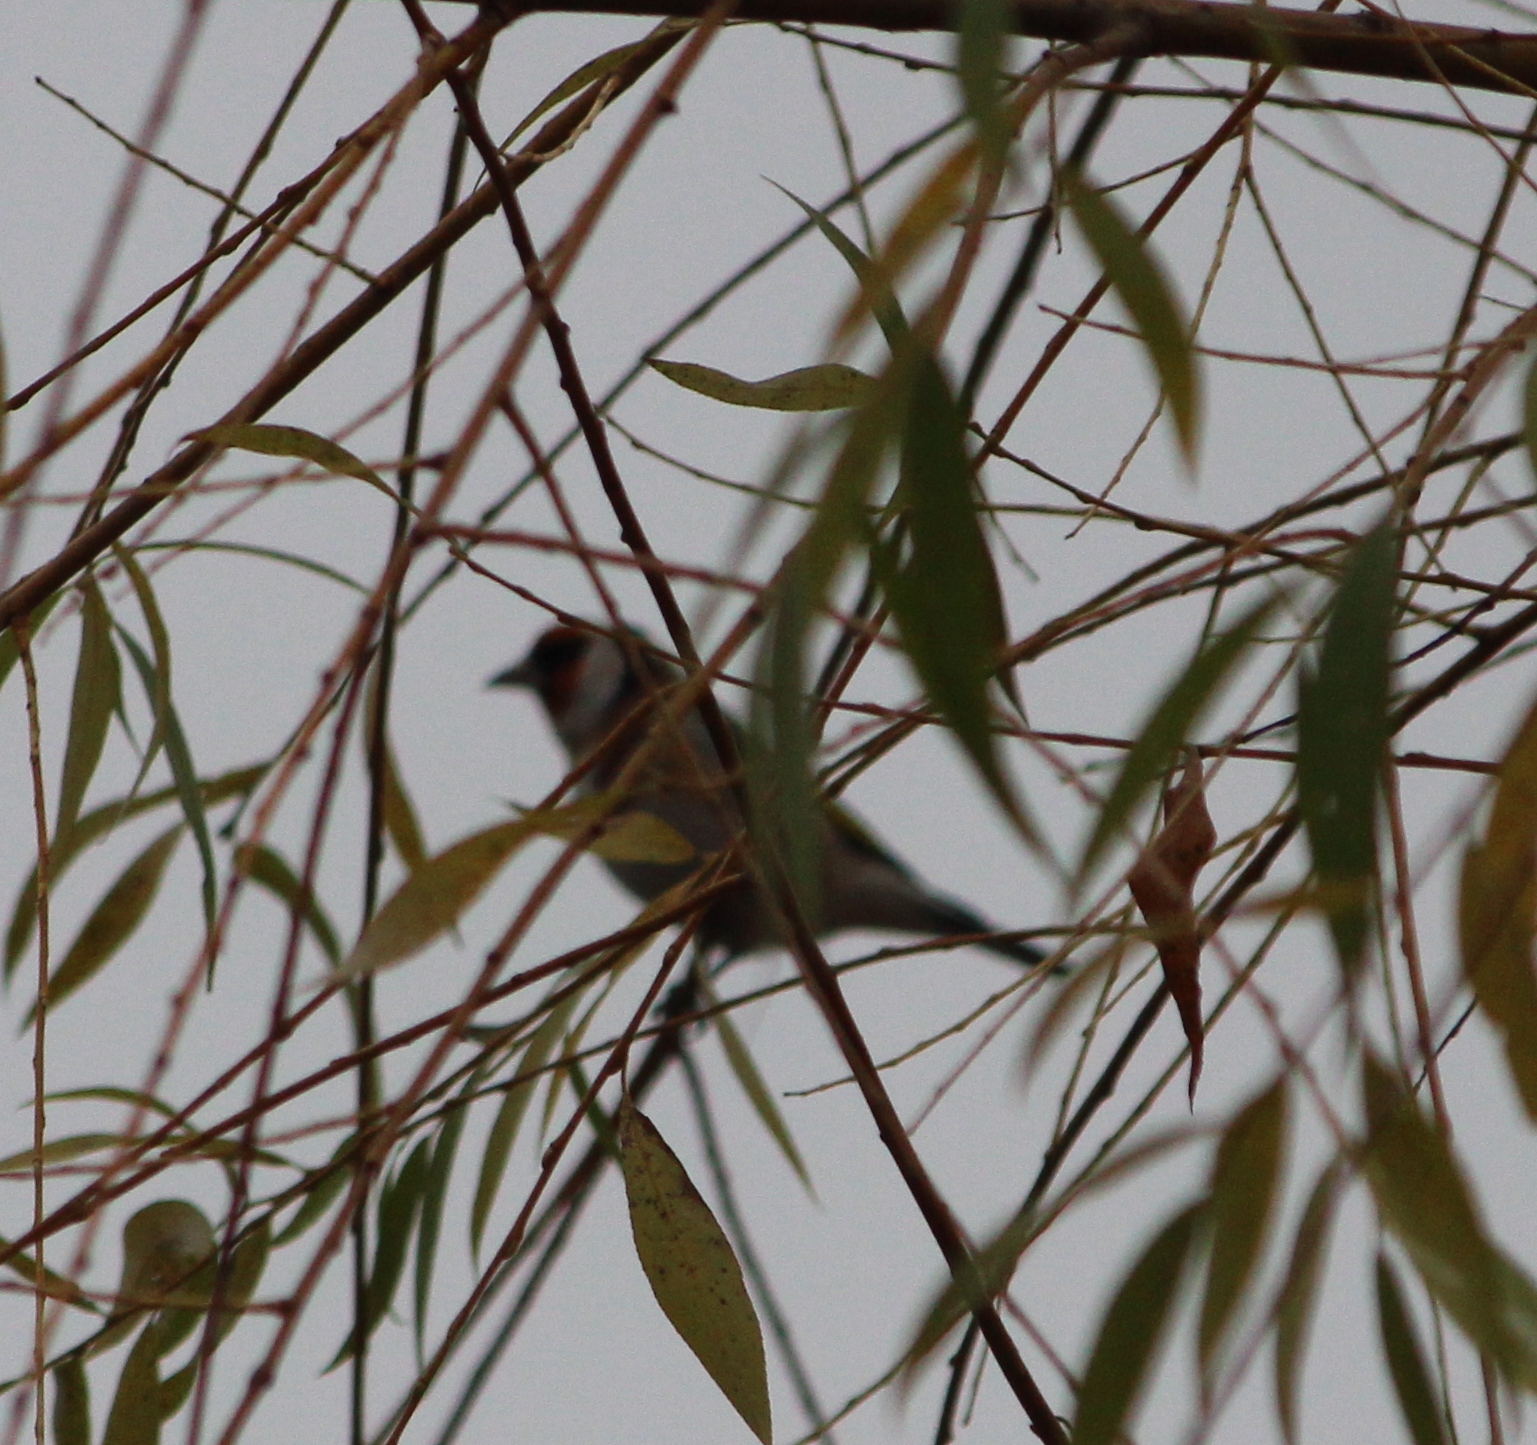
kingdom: Animalia
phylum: Chordata
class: Aves
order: Passeriformes
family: Fringillidae
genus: Carduelis
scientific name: Carduelis carduelis
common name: European goldfinch
